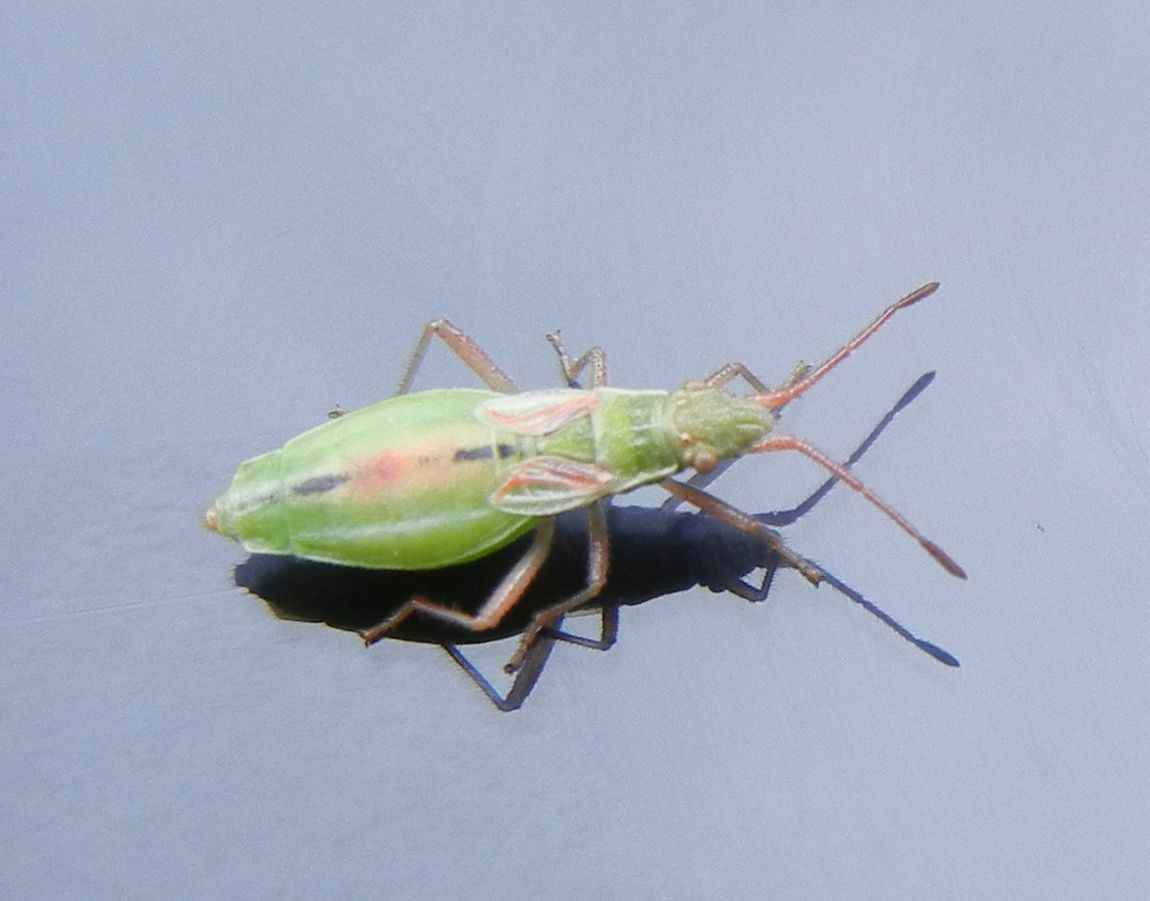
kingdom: Animalia
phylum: Arthropoda
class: Insecta
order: Hemiptera
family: Rhopalidae
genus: Myrmus
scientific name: Myrmus miriformis
